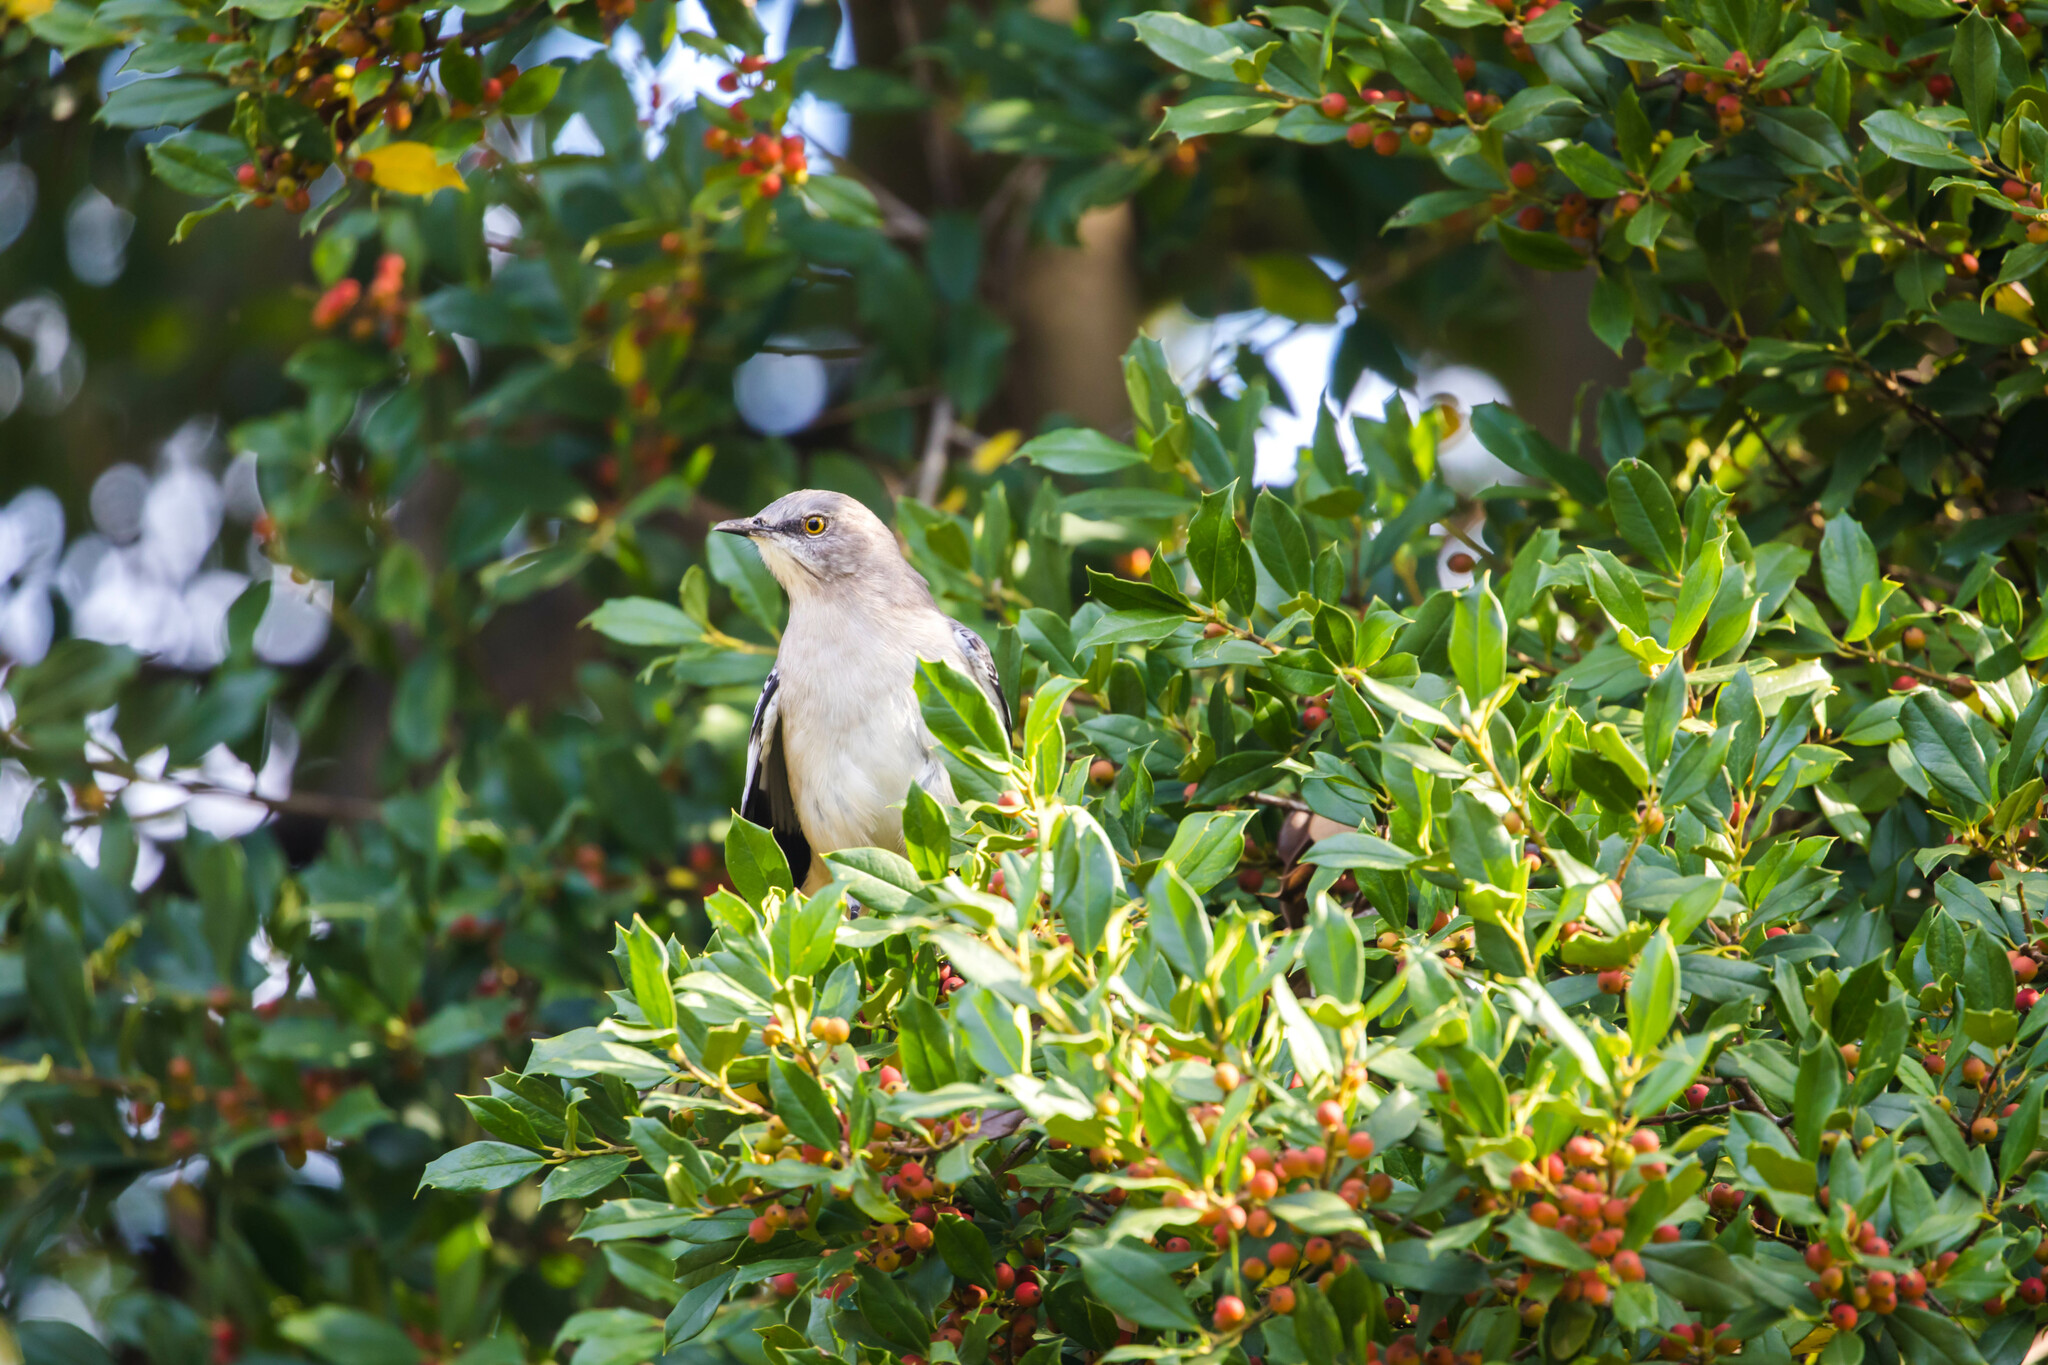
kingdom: Animalia
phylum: Chordata
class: Aves
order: Passeriformes
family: Mimidae
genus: Mimus
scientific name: Mimus polyglottos
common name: Northern mockingbird
